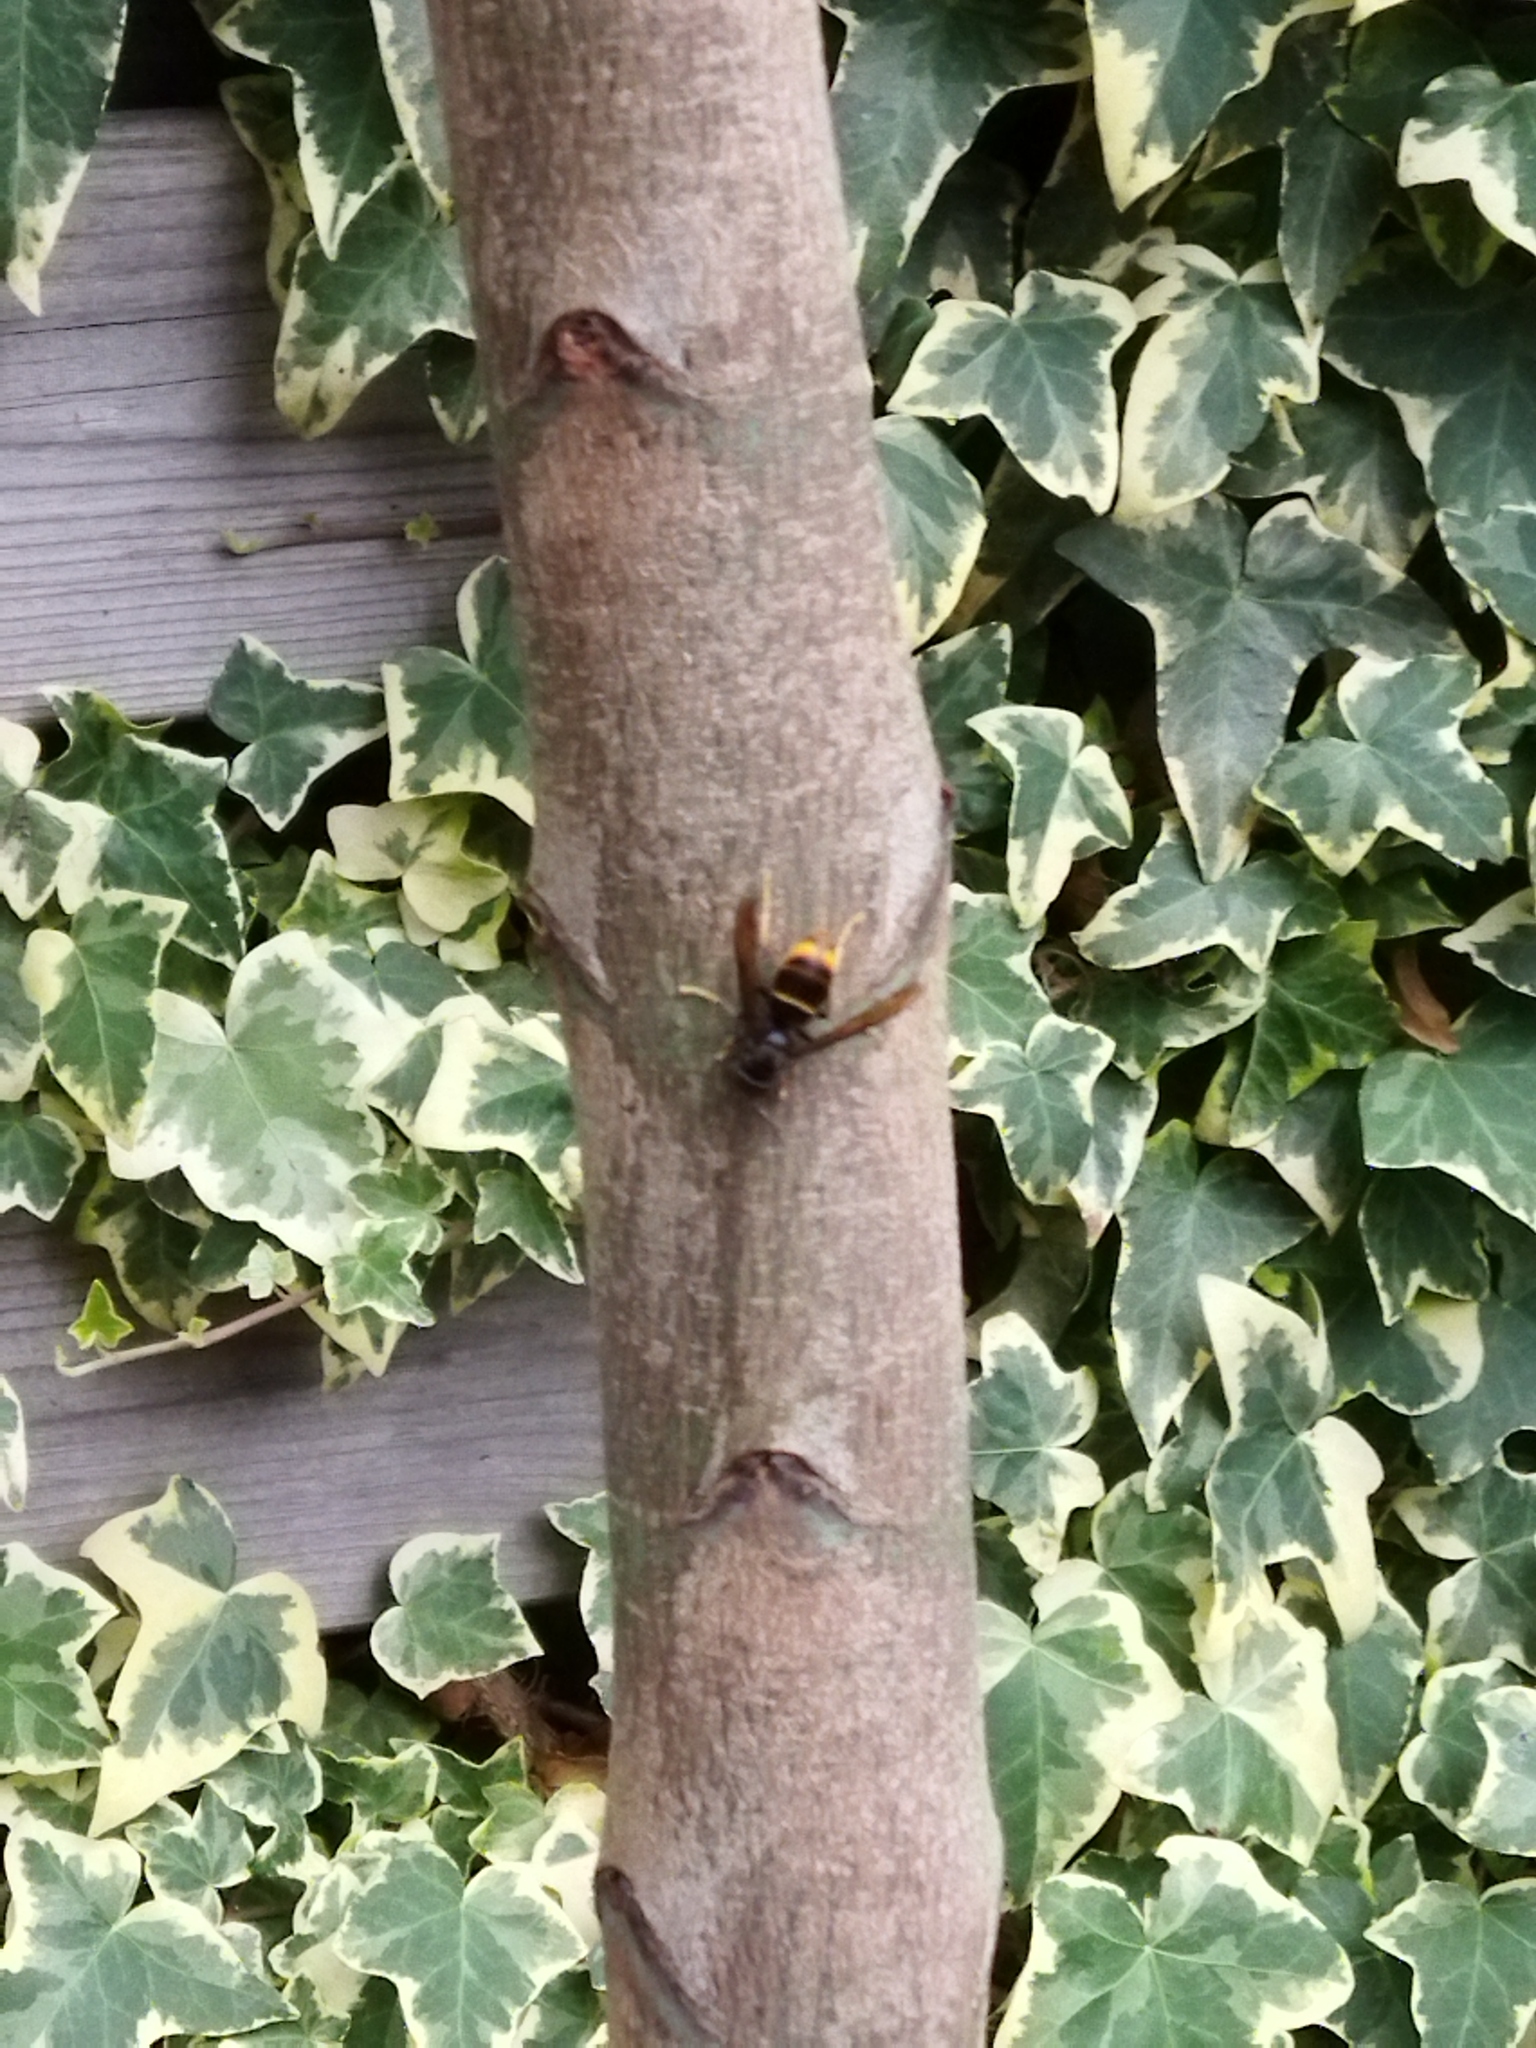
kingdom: Animalia
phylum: Arthropoda
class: Insecta
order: Hymenoptera
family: Vespidae
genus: Vespa
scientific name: Vespa velutina
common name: Asian hornet
